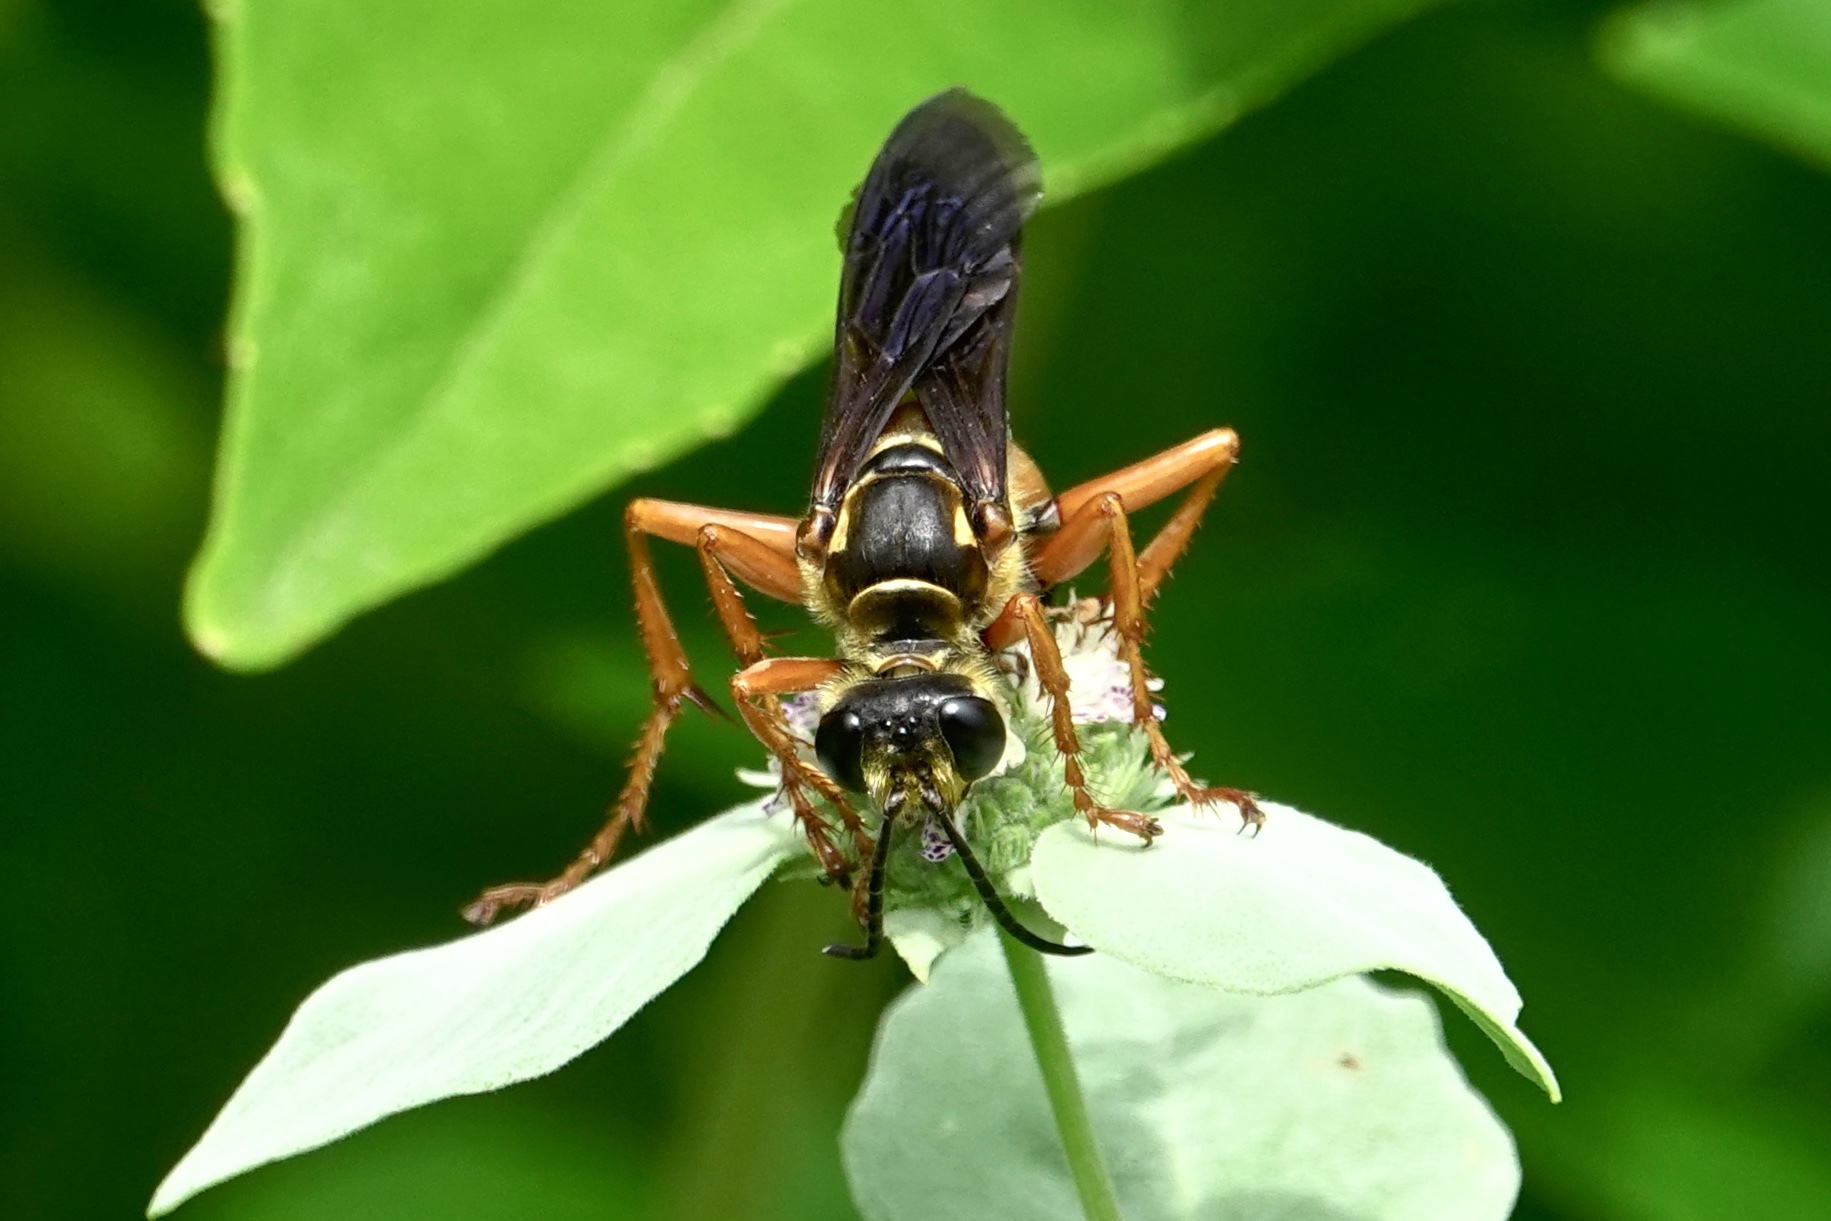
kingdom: Animalia
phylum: Arthropoda
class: Insecta
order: Hymenoptera
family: Sphecidae
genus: Sphex
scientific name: Sphex ichneumoneus
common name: Great golden digger wasp
